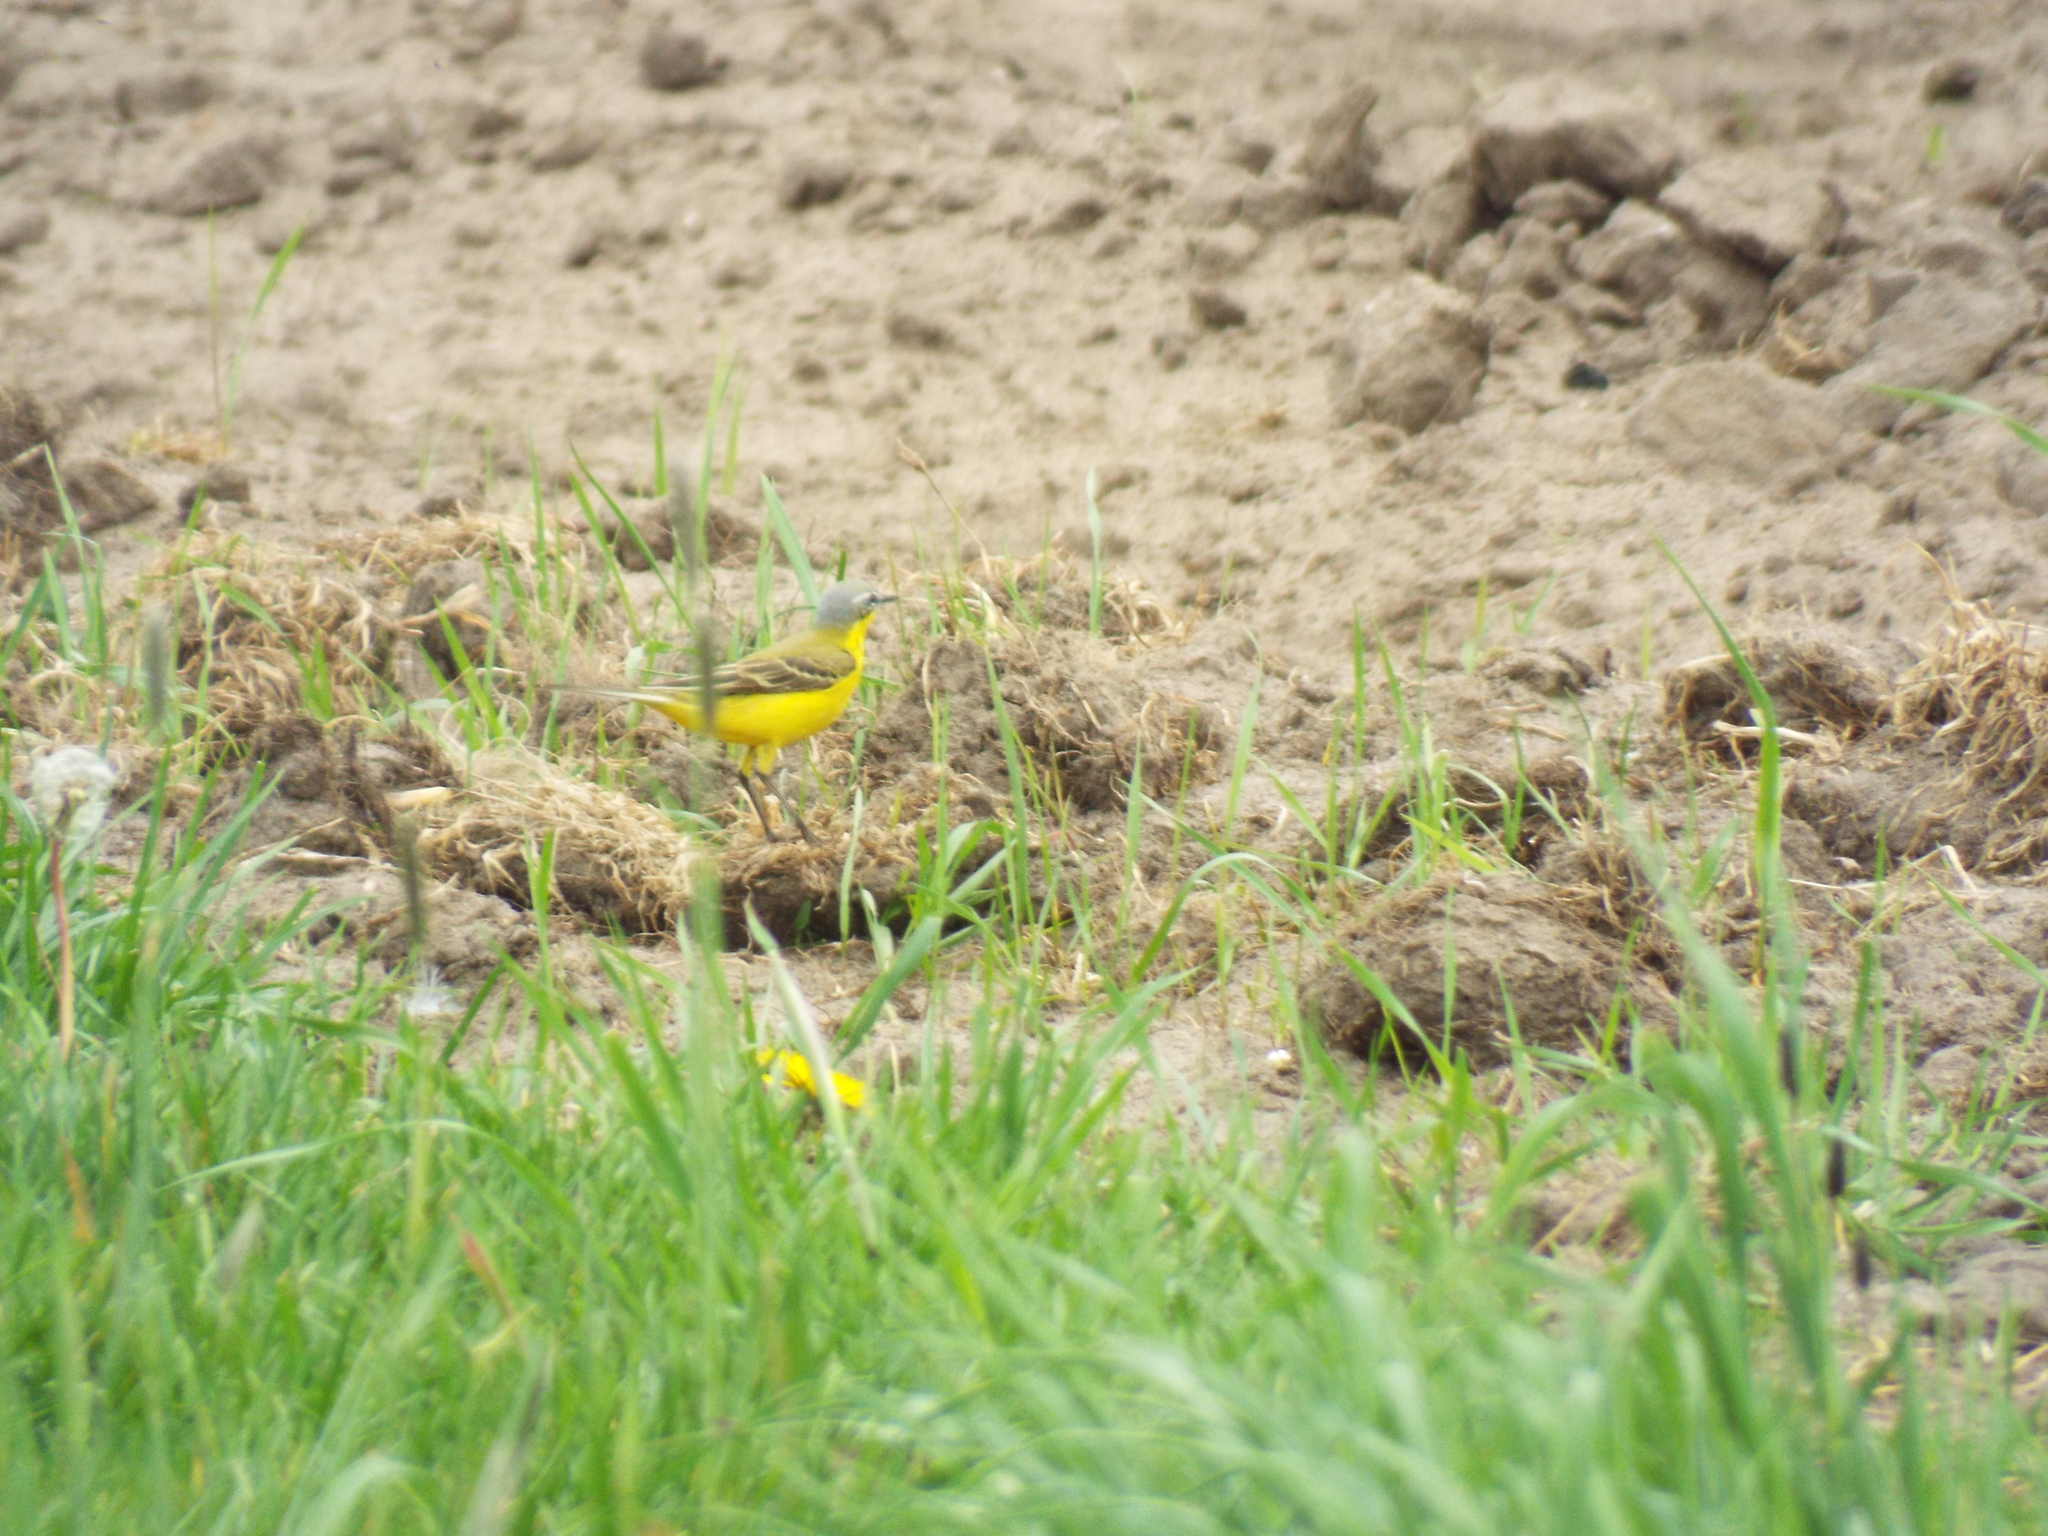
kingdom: Animalia
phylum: Chordata
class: Aves
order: Passeriformes
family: Motacillidae
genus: Motacilla
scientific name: Motacilla flava
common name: Western yellow wagtail
